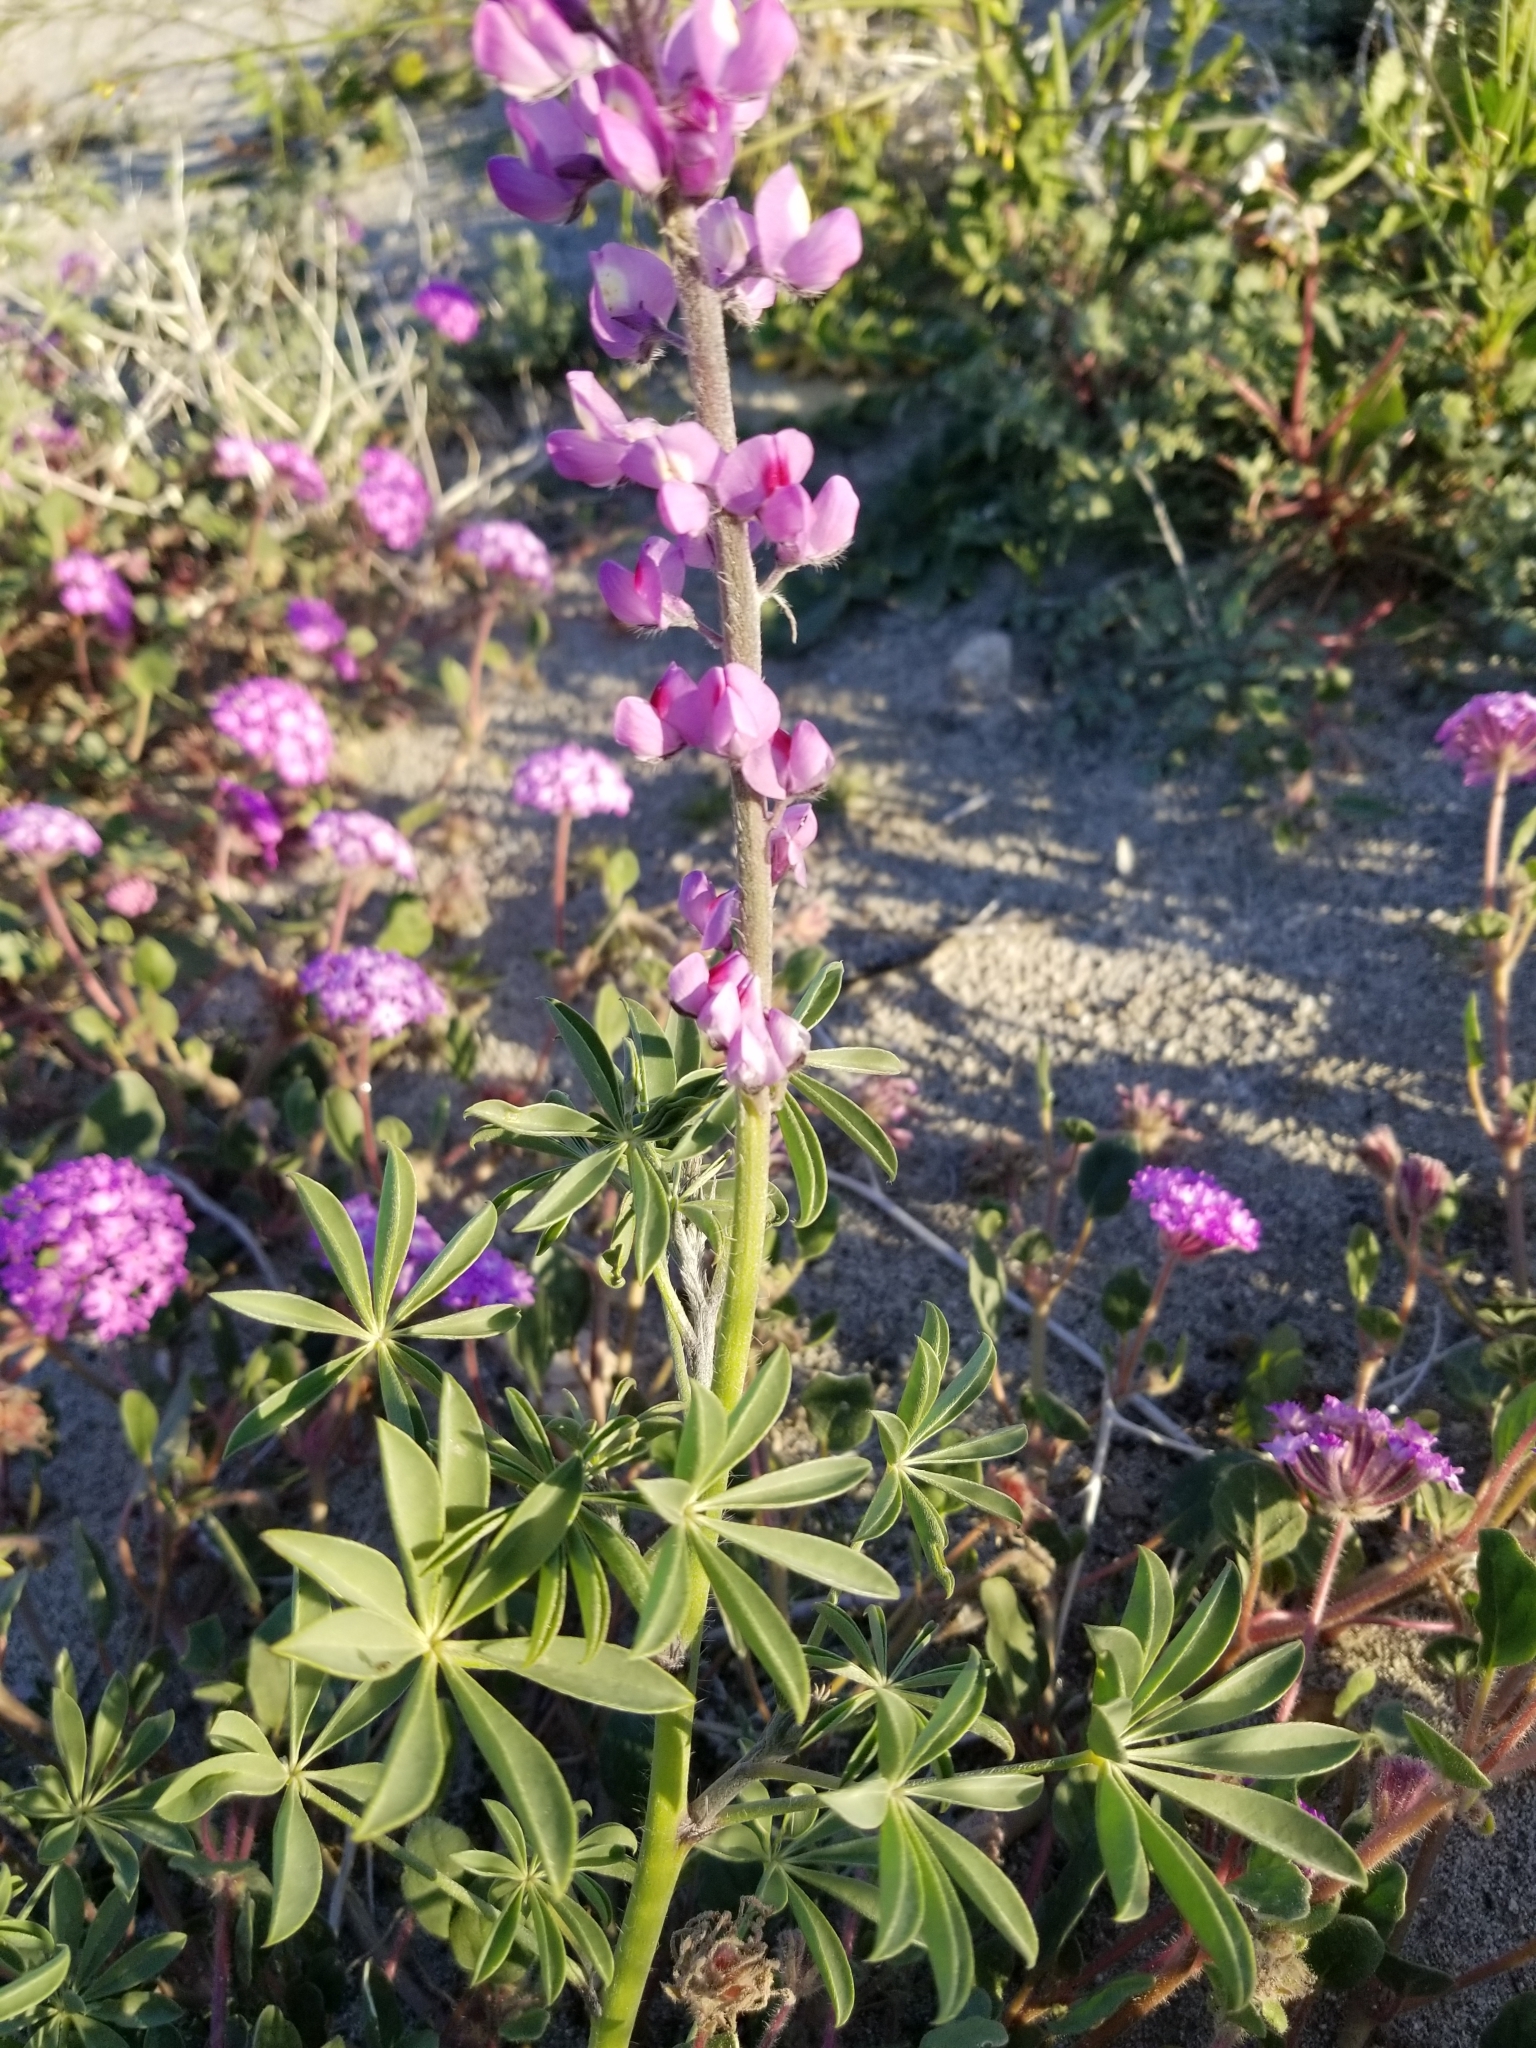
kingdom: Plantae
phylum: Tracheophyta
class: Magnoliopsida
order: Fabales
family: Fabaceae
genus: Lupinus
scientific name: Lupinus arizonicus
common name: Arizona lupine
